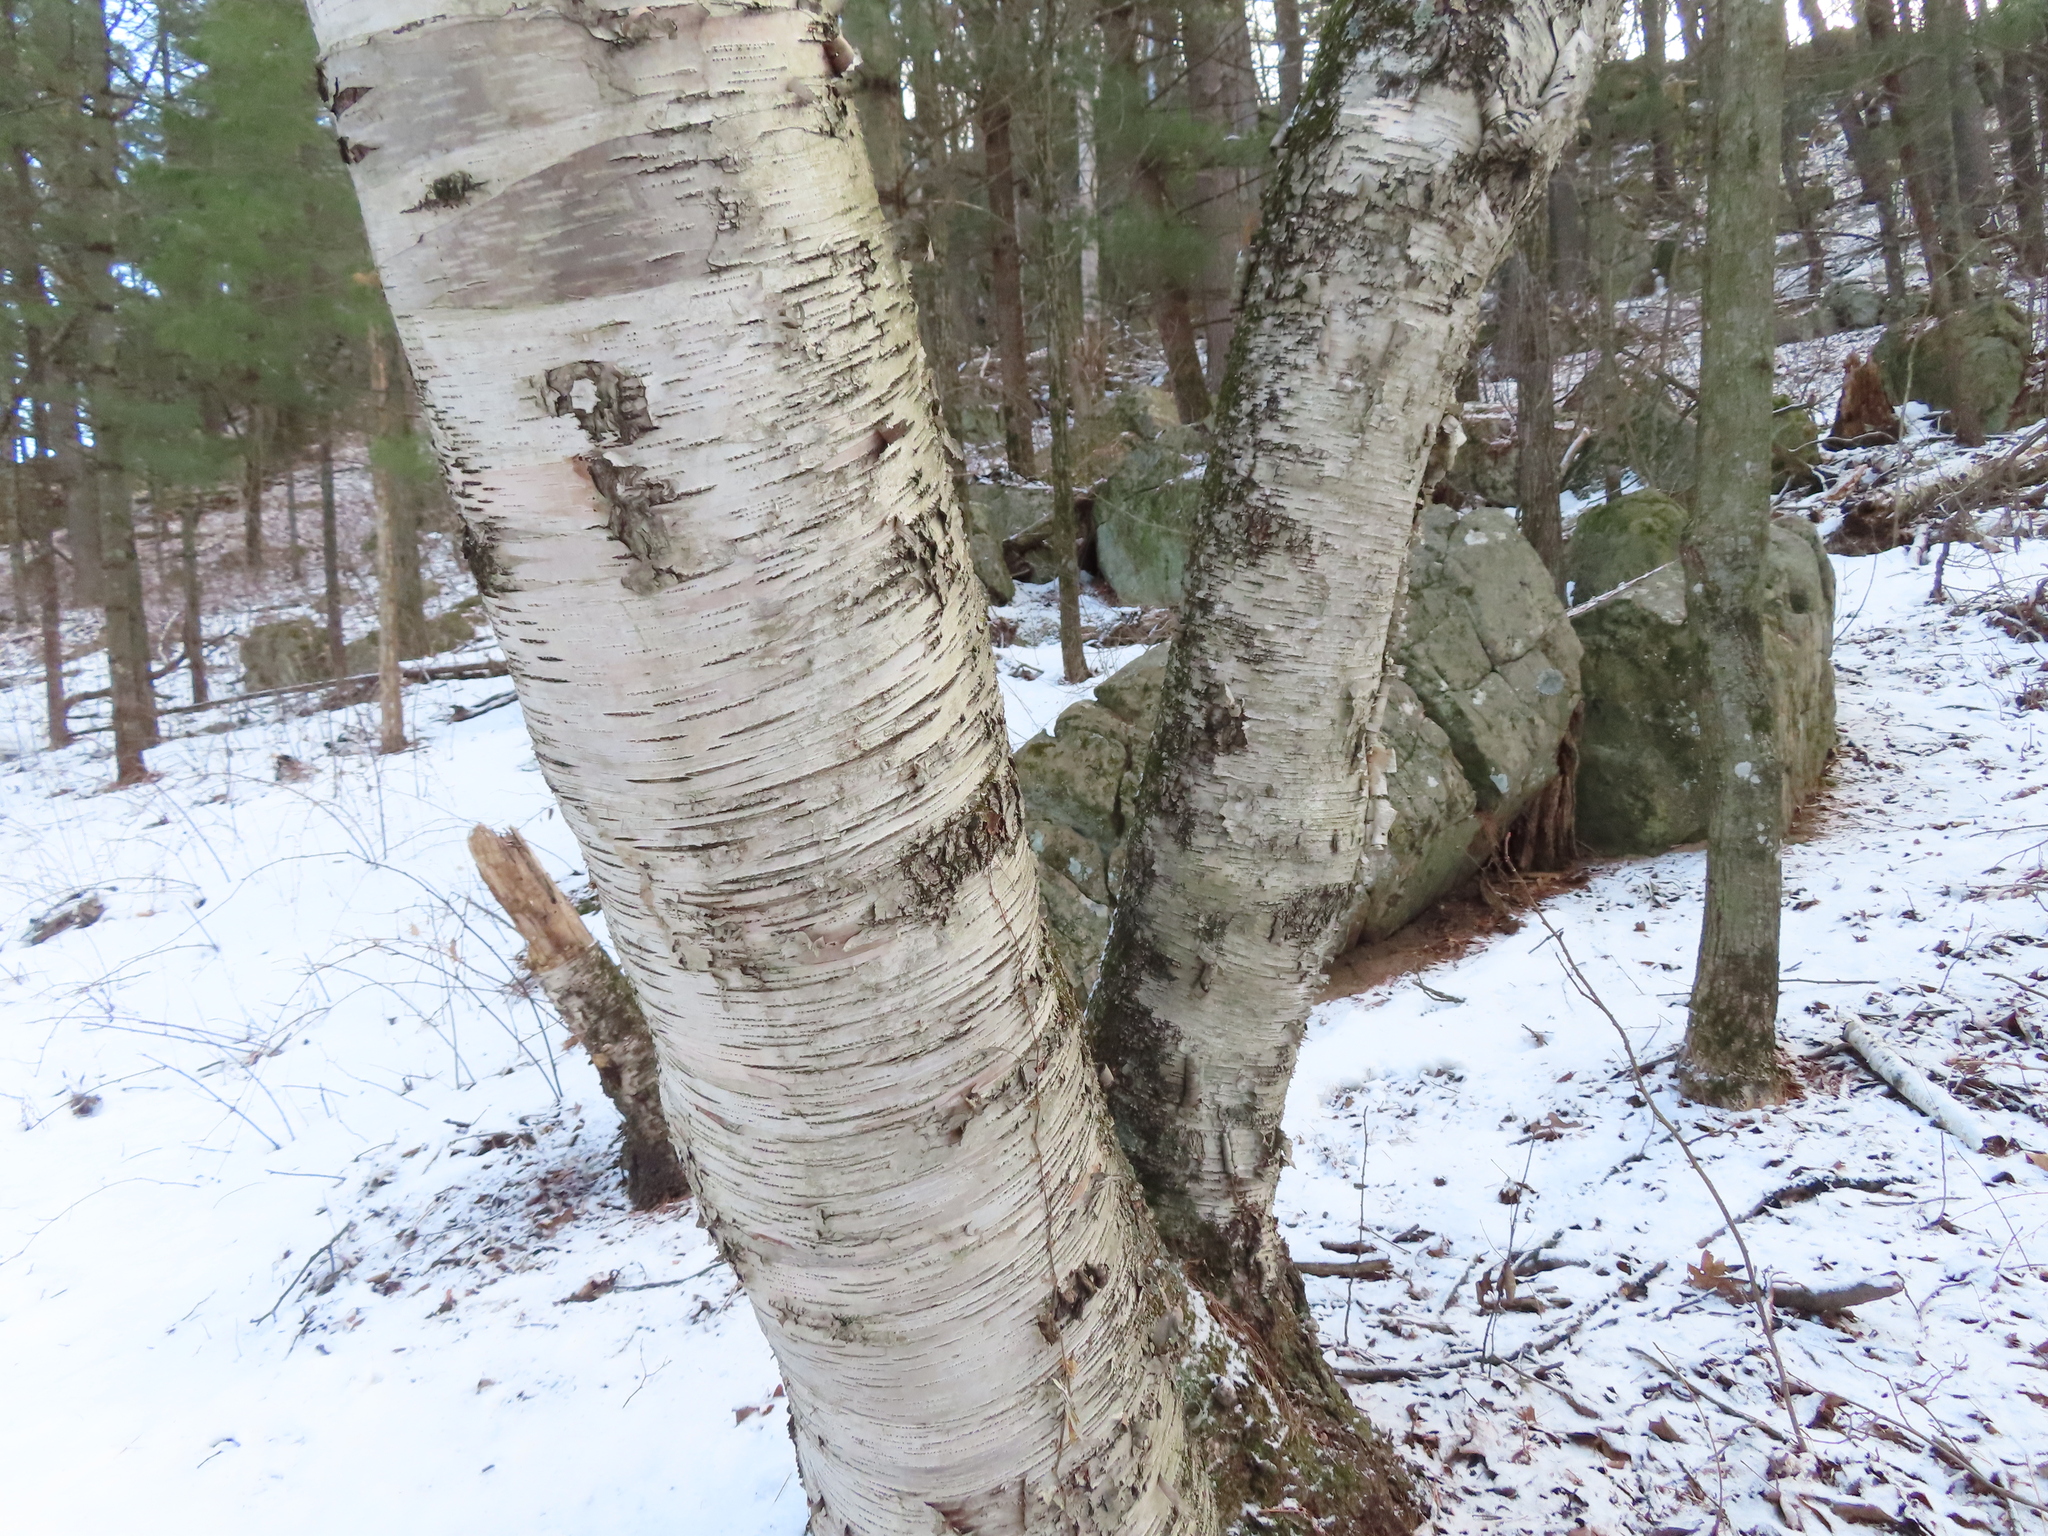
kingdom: Plantae
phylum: Tracheophyta
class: Magnoliopsida
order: Fagales
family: Betulaceae
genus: Betula
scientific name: Betula papyrifera
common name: Paper birch
